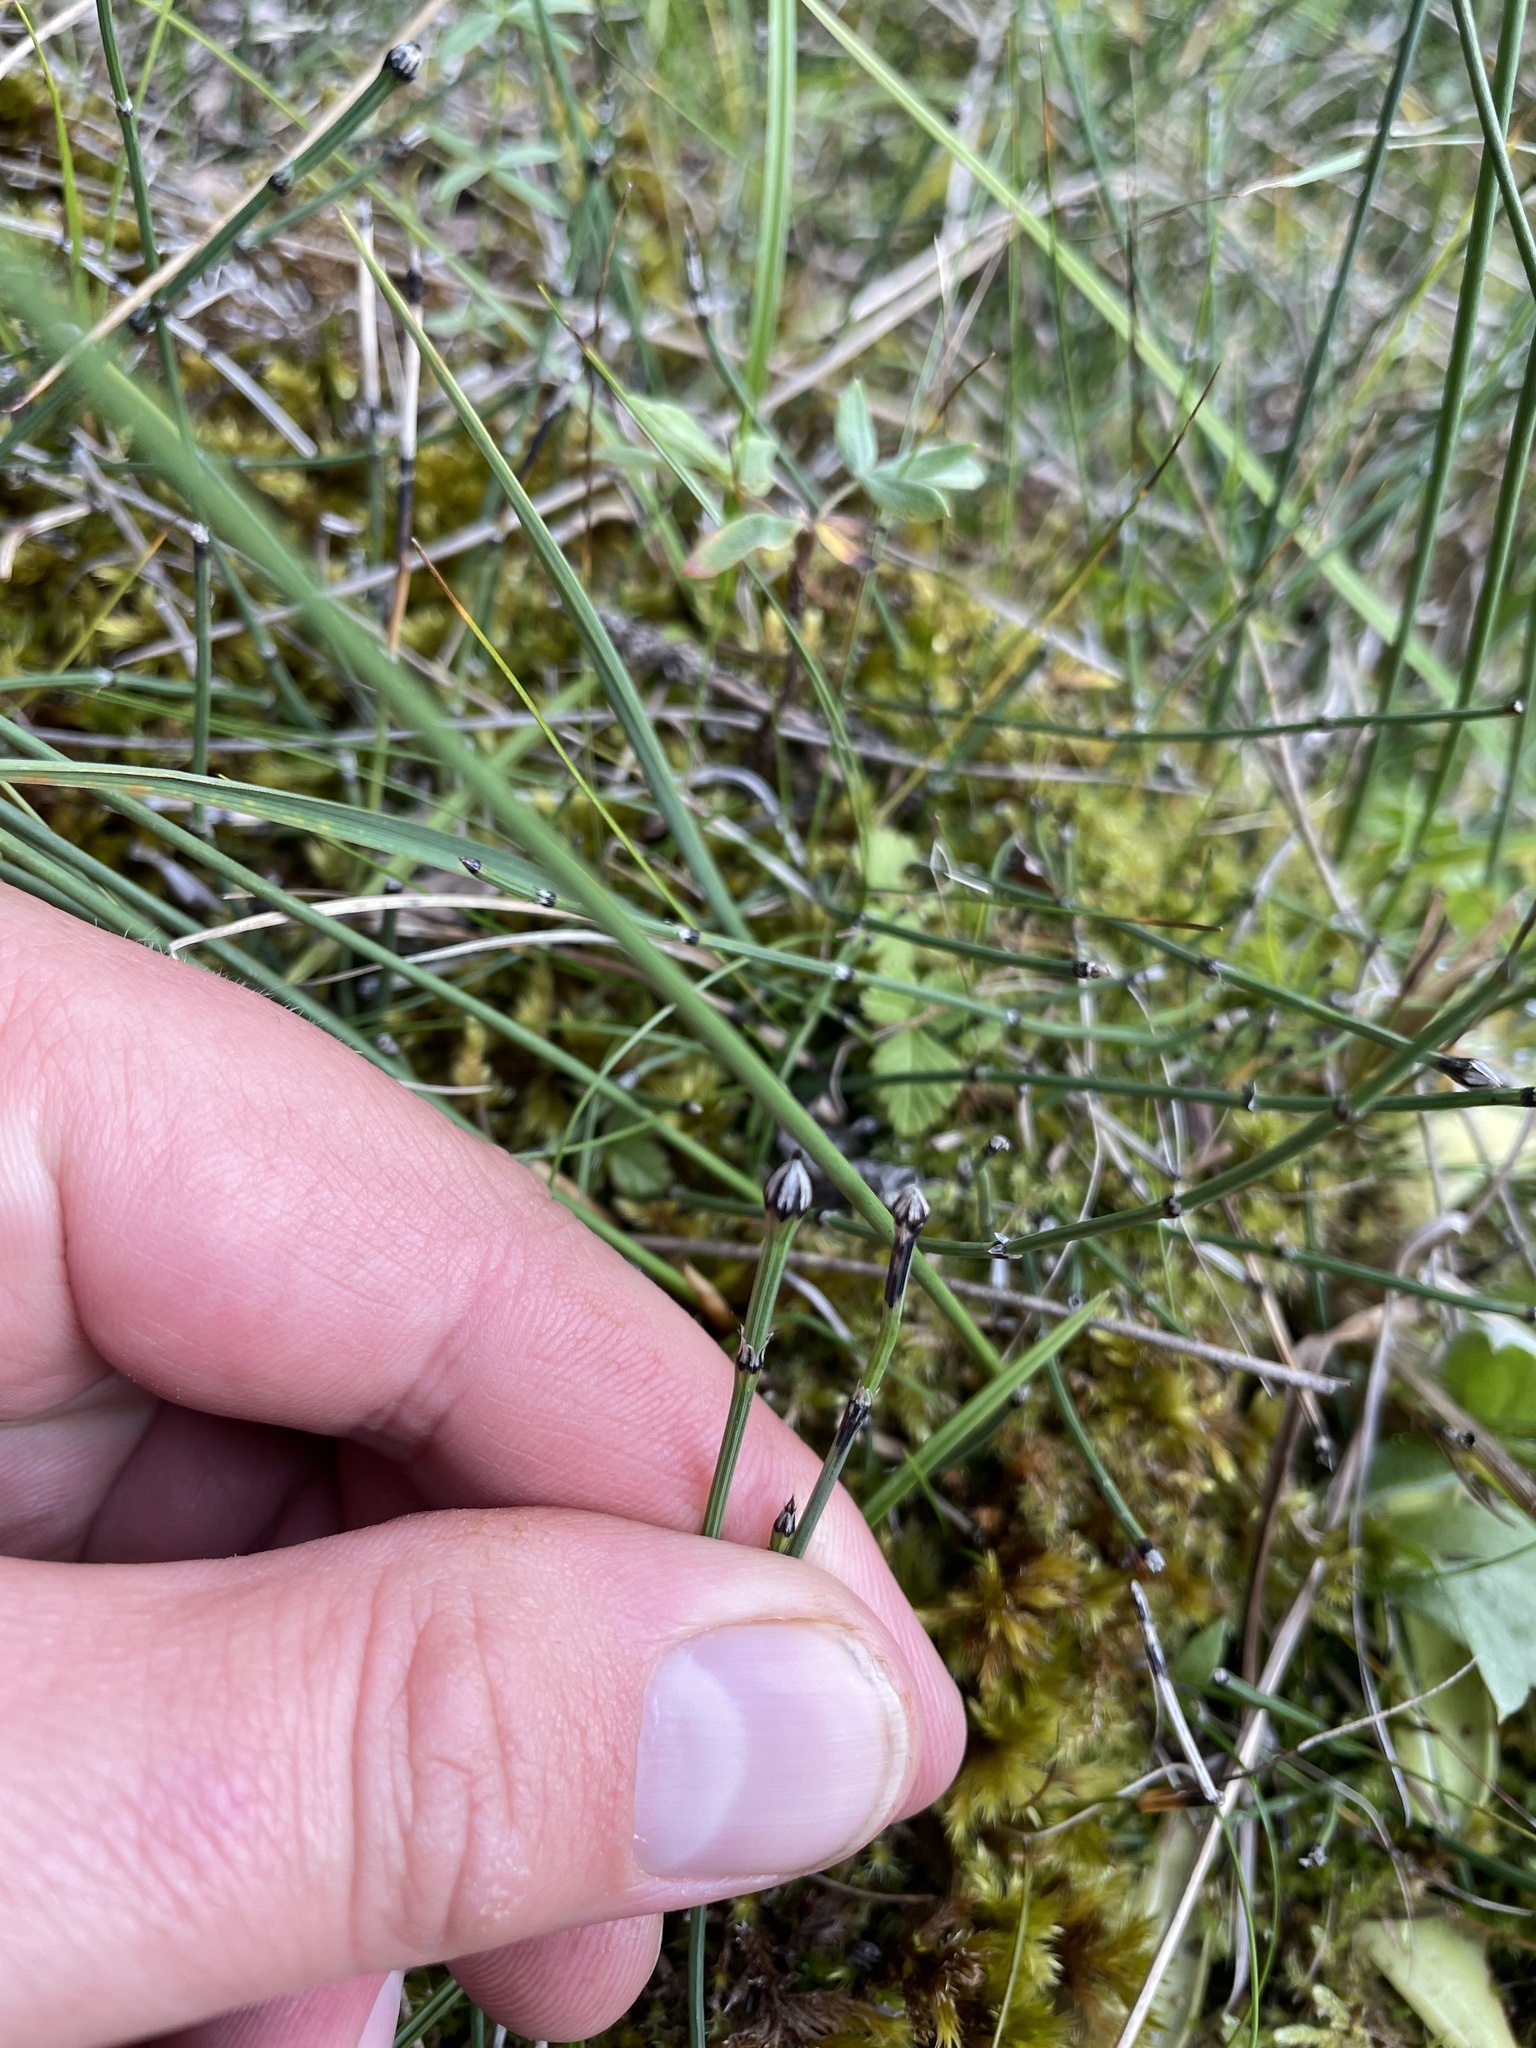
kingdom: Plantae
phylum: Tracheophyta
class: Polypodiopsida
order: Equisetales
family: Equisetaceae
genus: Equisetum
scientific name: Equisetum variegatum
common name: Variegated horsetail
